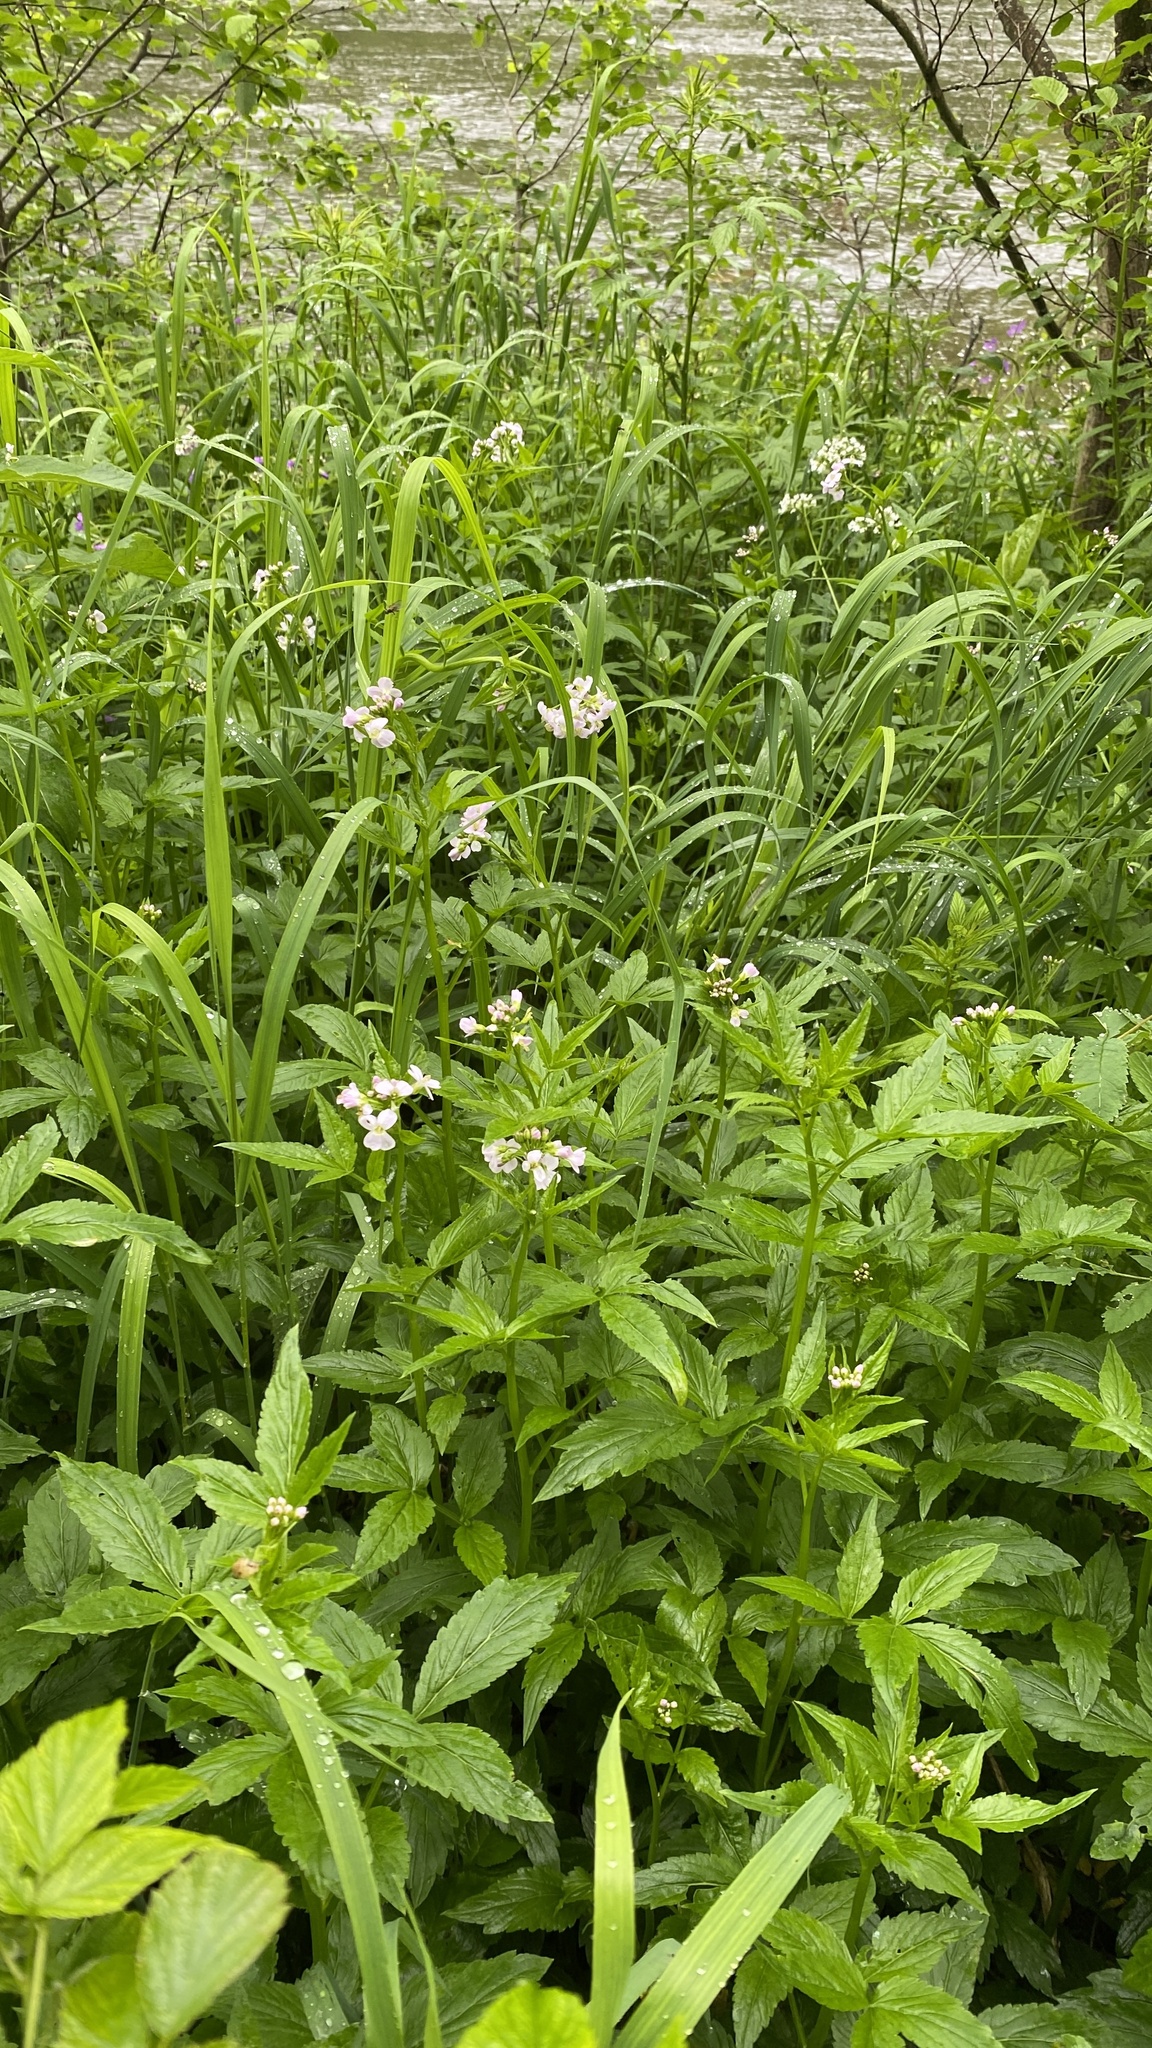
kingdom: Plantae
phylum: Tracheophyta
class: Magnoliopsida
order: Brassicales
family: Brassicaceae
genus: Cardamine
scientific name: Cardamine macrophylla
